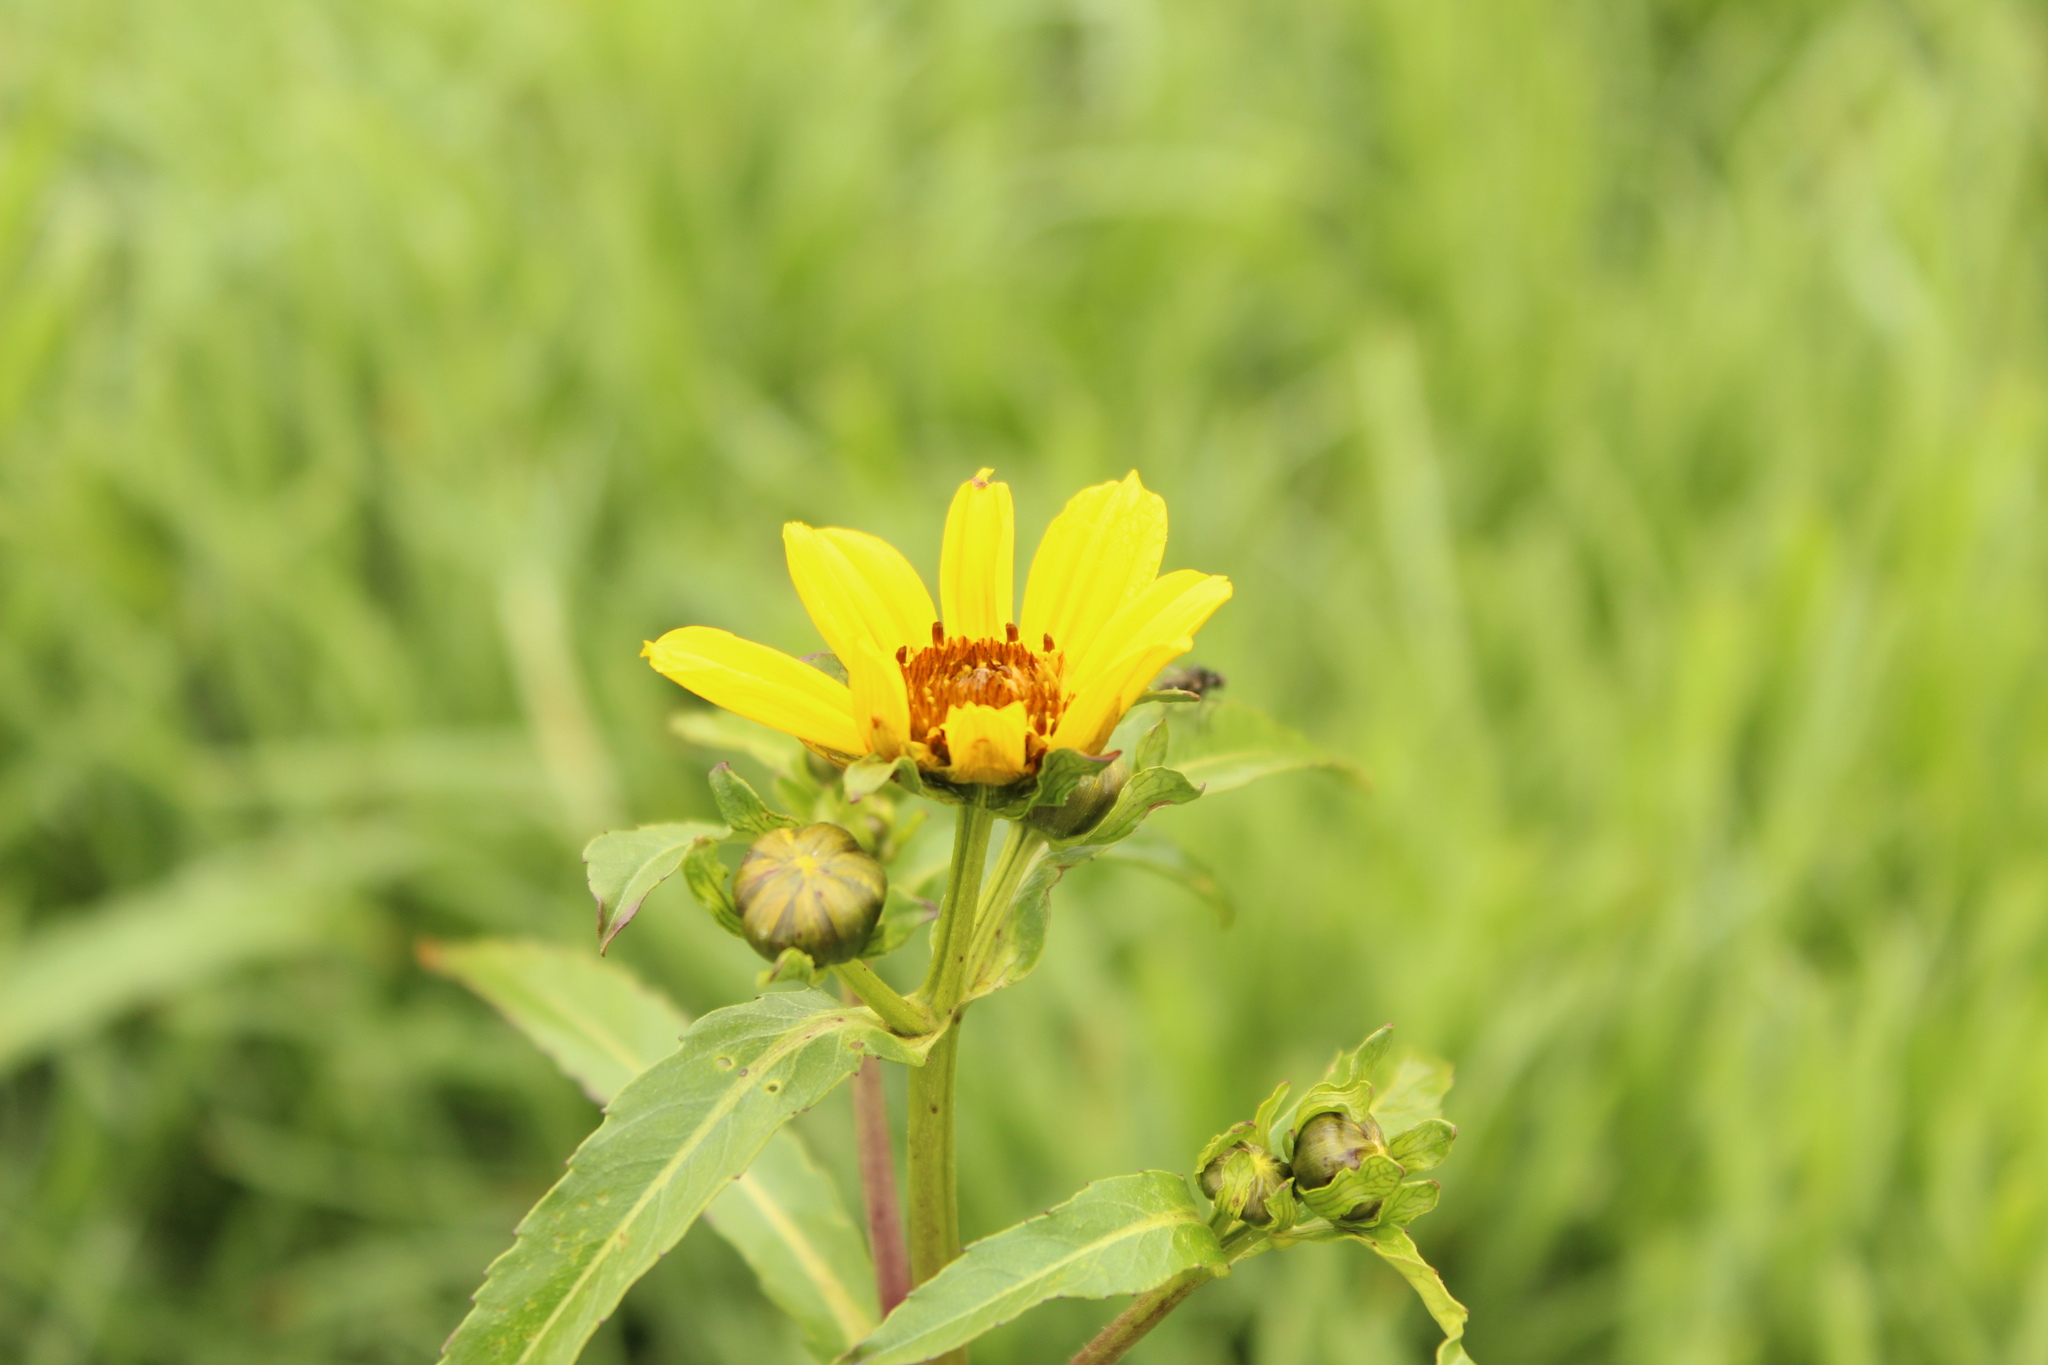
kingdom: Plantae
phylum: Tracheophyta
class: Magnoliopsida
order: Asterales
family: Asteraceae
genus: Bidens
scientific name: Bidens laevis
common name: Larger bur-marigold
